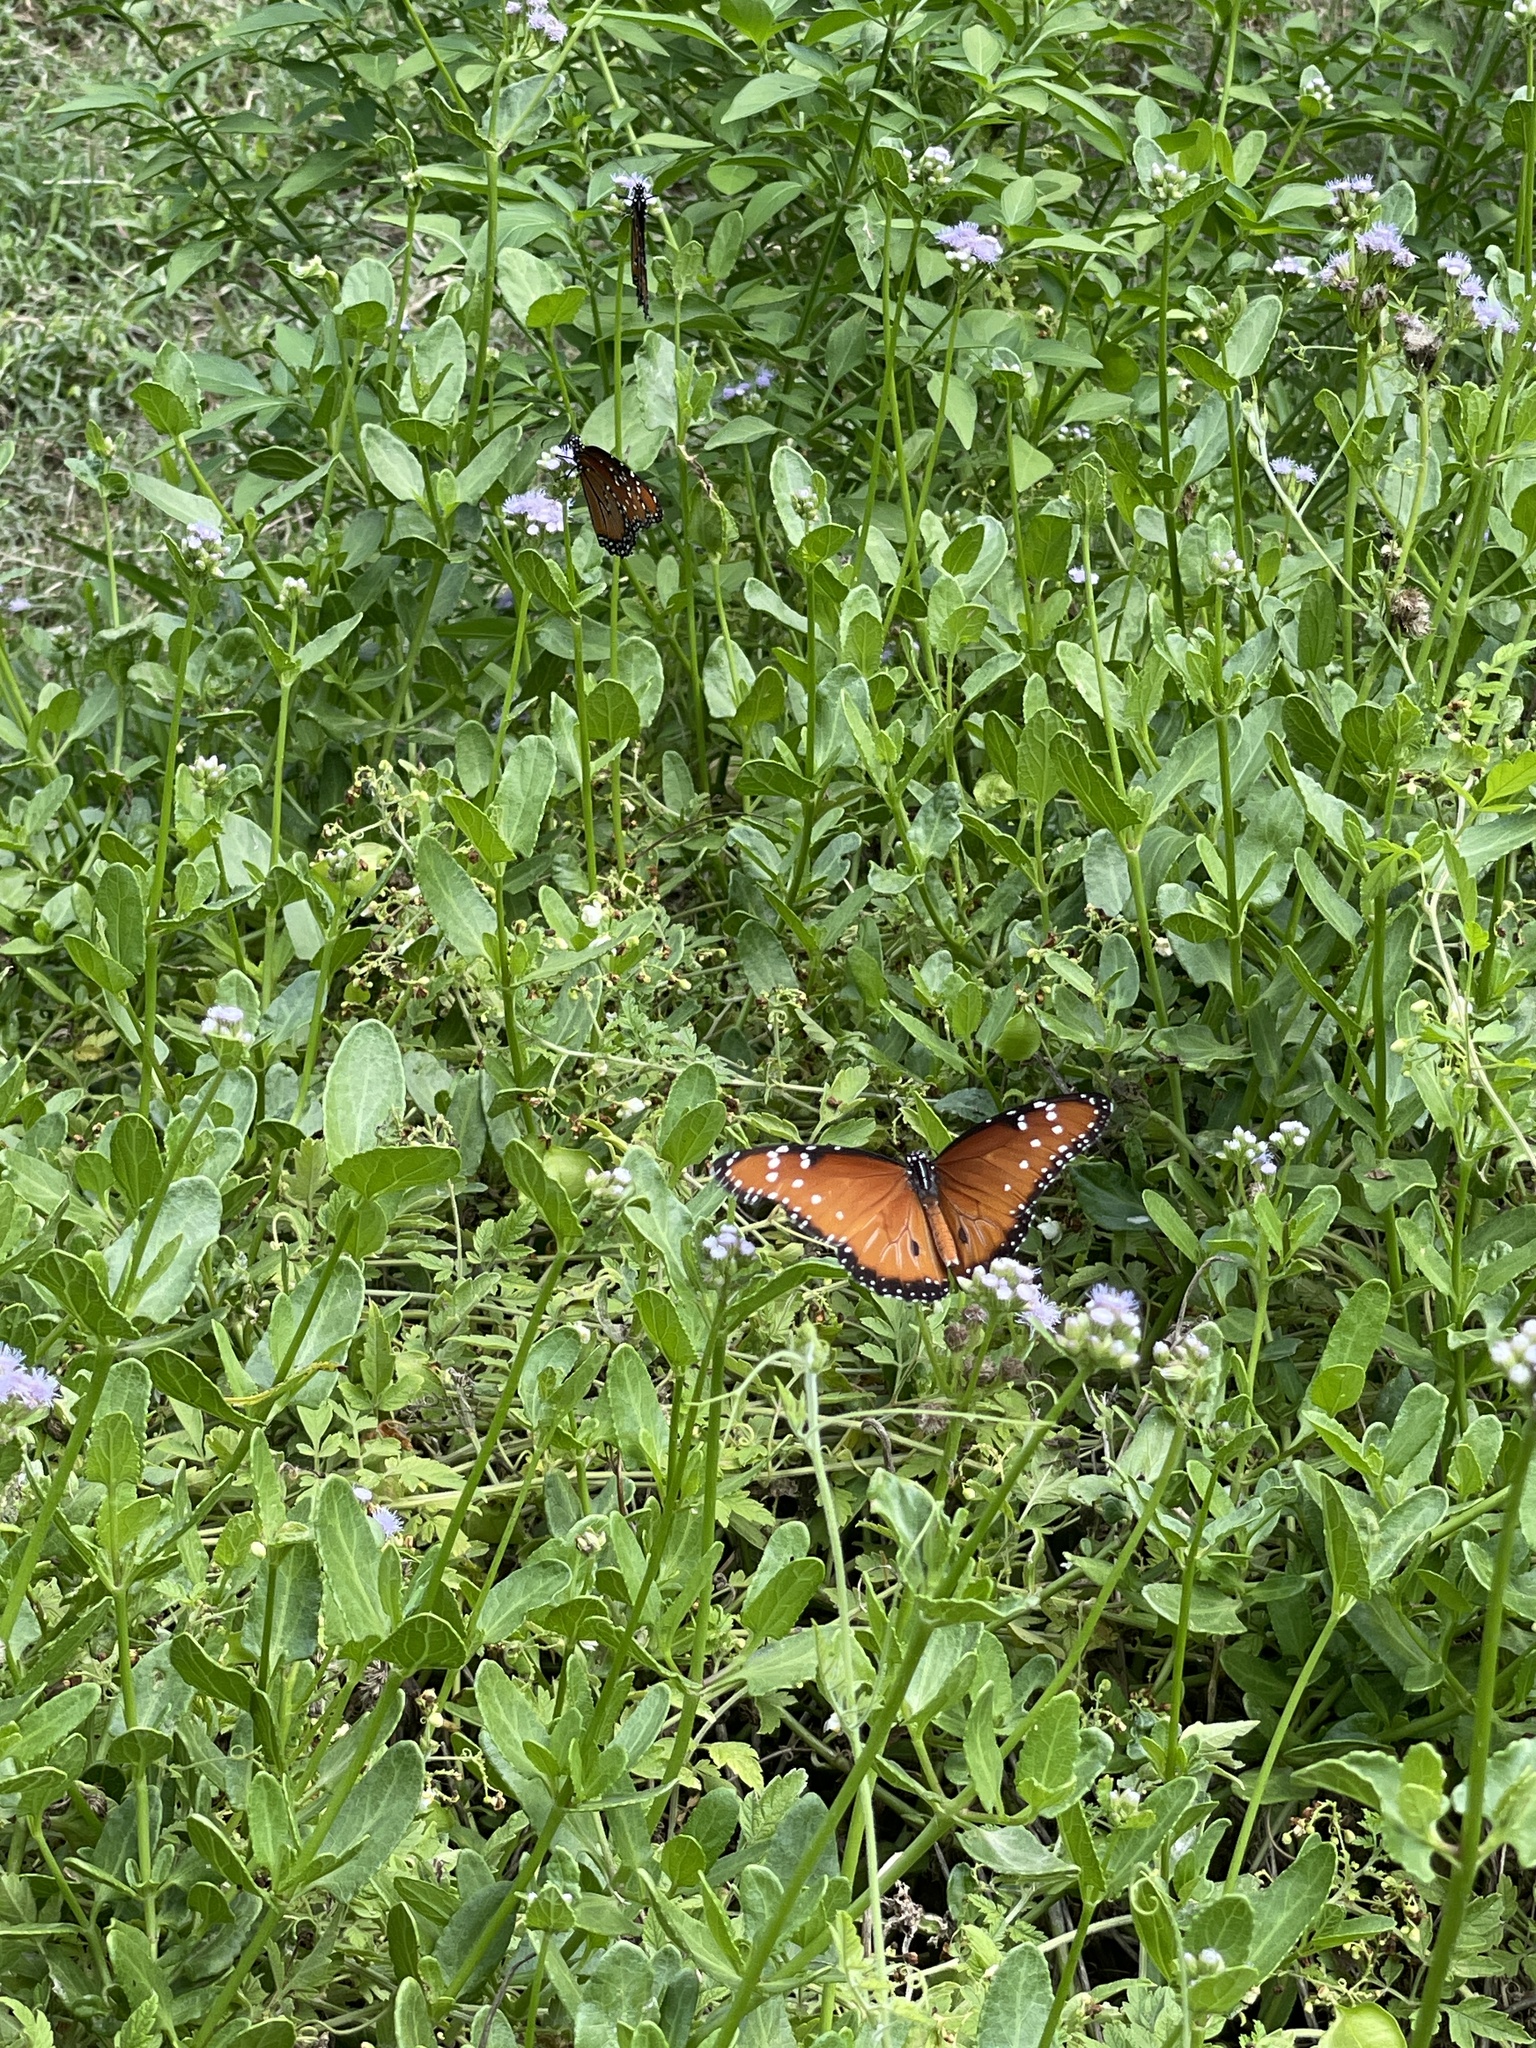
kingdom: Animalia
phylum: Arthropoda
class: Insecta
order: Lepidoptera
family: Nymphalidae
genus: Danaus
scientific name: Danaus gilippus
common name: Queen
